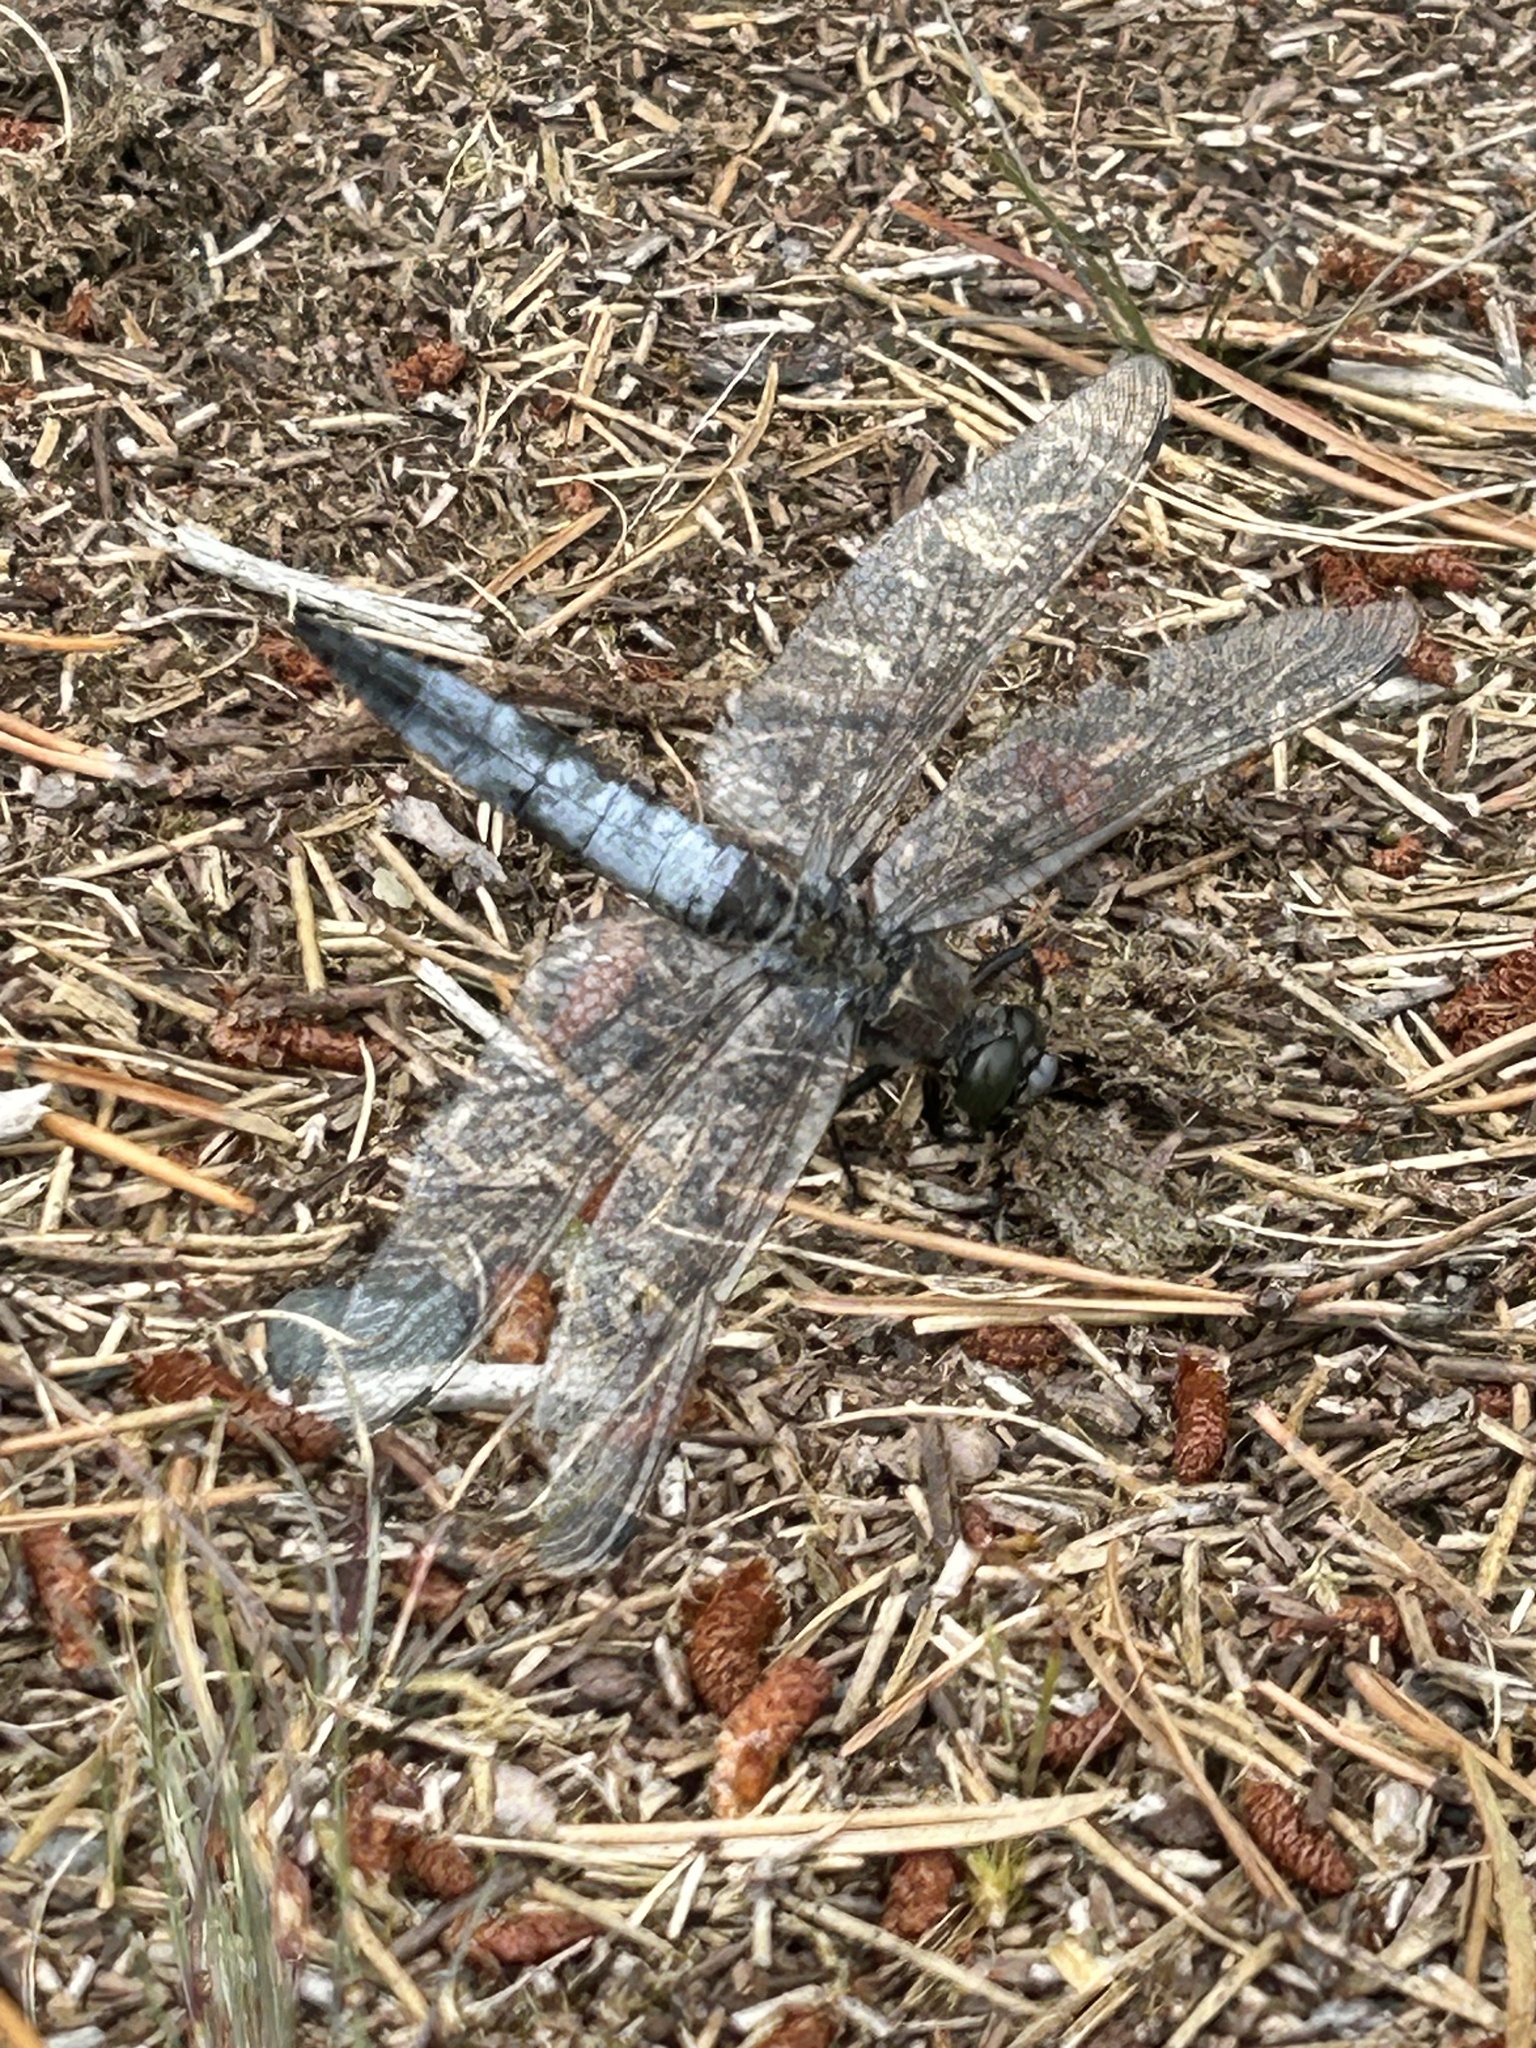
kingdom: Animalia
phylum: Arthropoda
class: Insecta
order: Odonata
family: Libellulidae
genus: Orthetrum
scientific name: Orthetrum cancellatum
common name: Black-tailed skimmer
